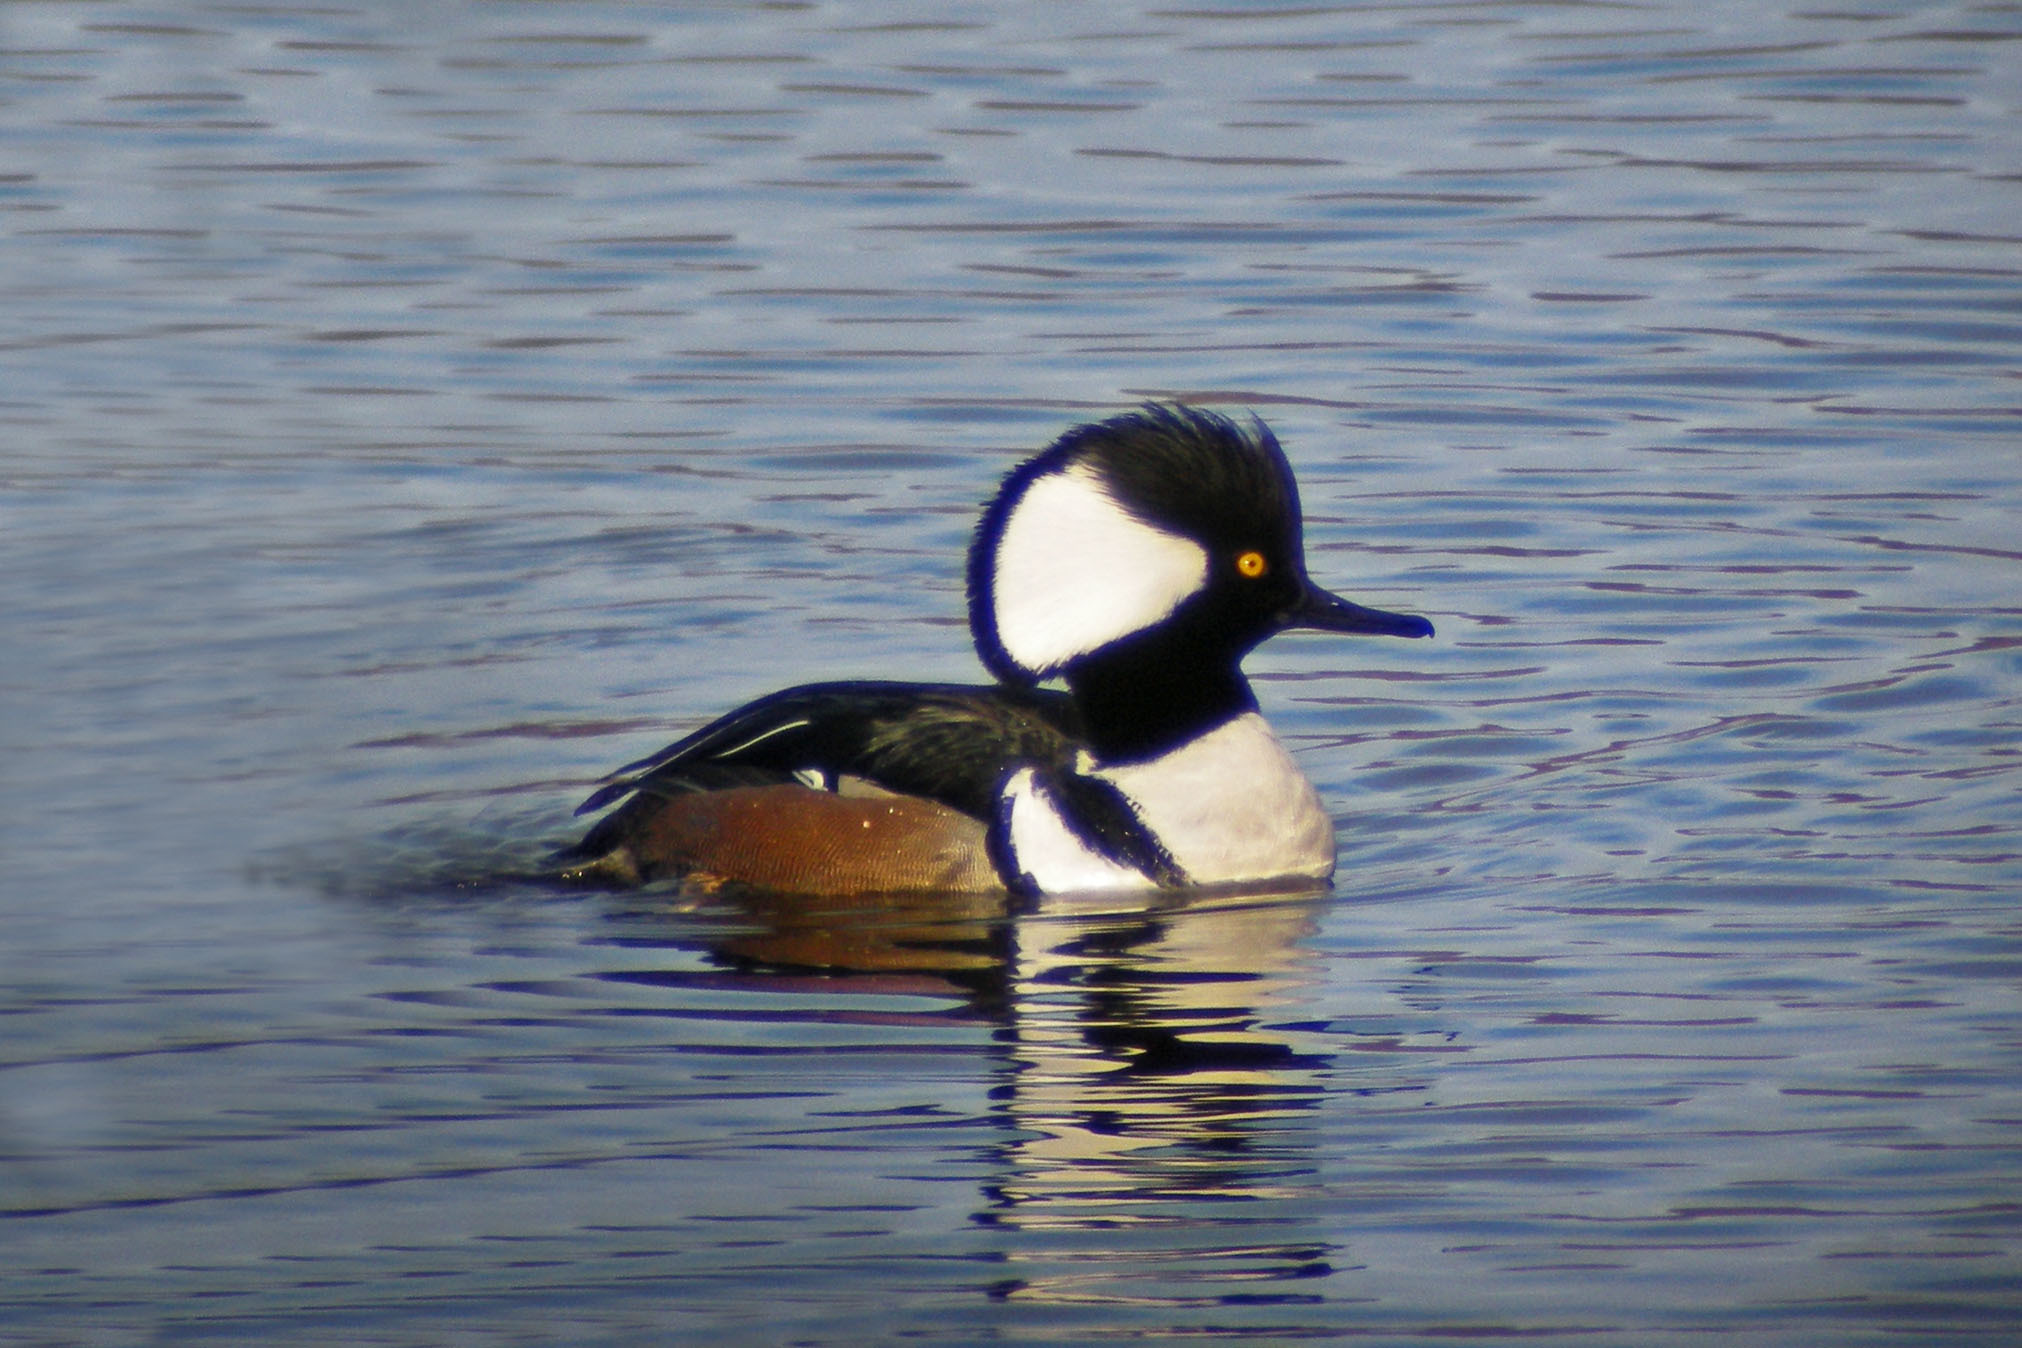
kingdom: Animalia
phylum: Chordata
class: Aves
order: Anseriformes
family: Anatidae
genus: Lophodytes
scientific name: Lophodytes cucullatus
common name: Hooded merganser
